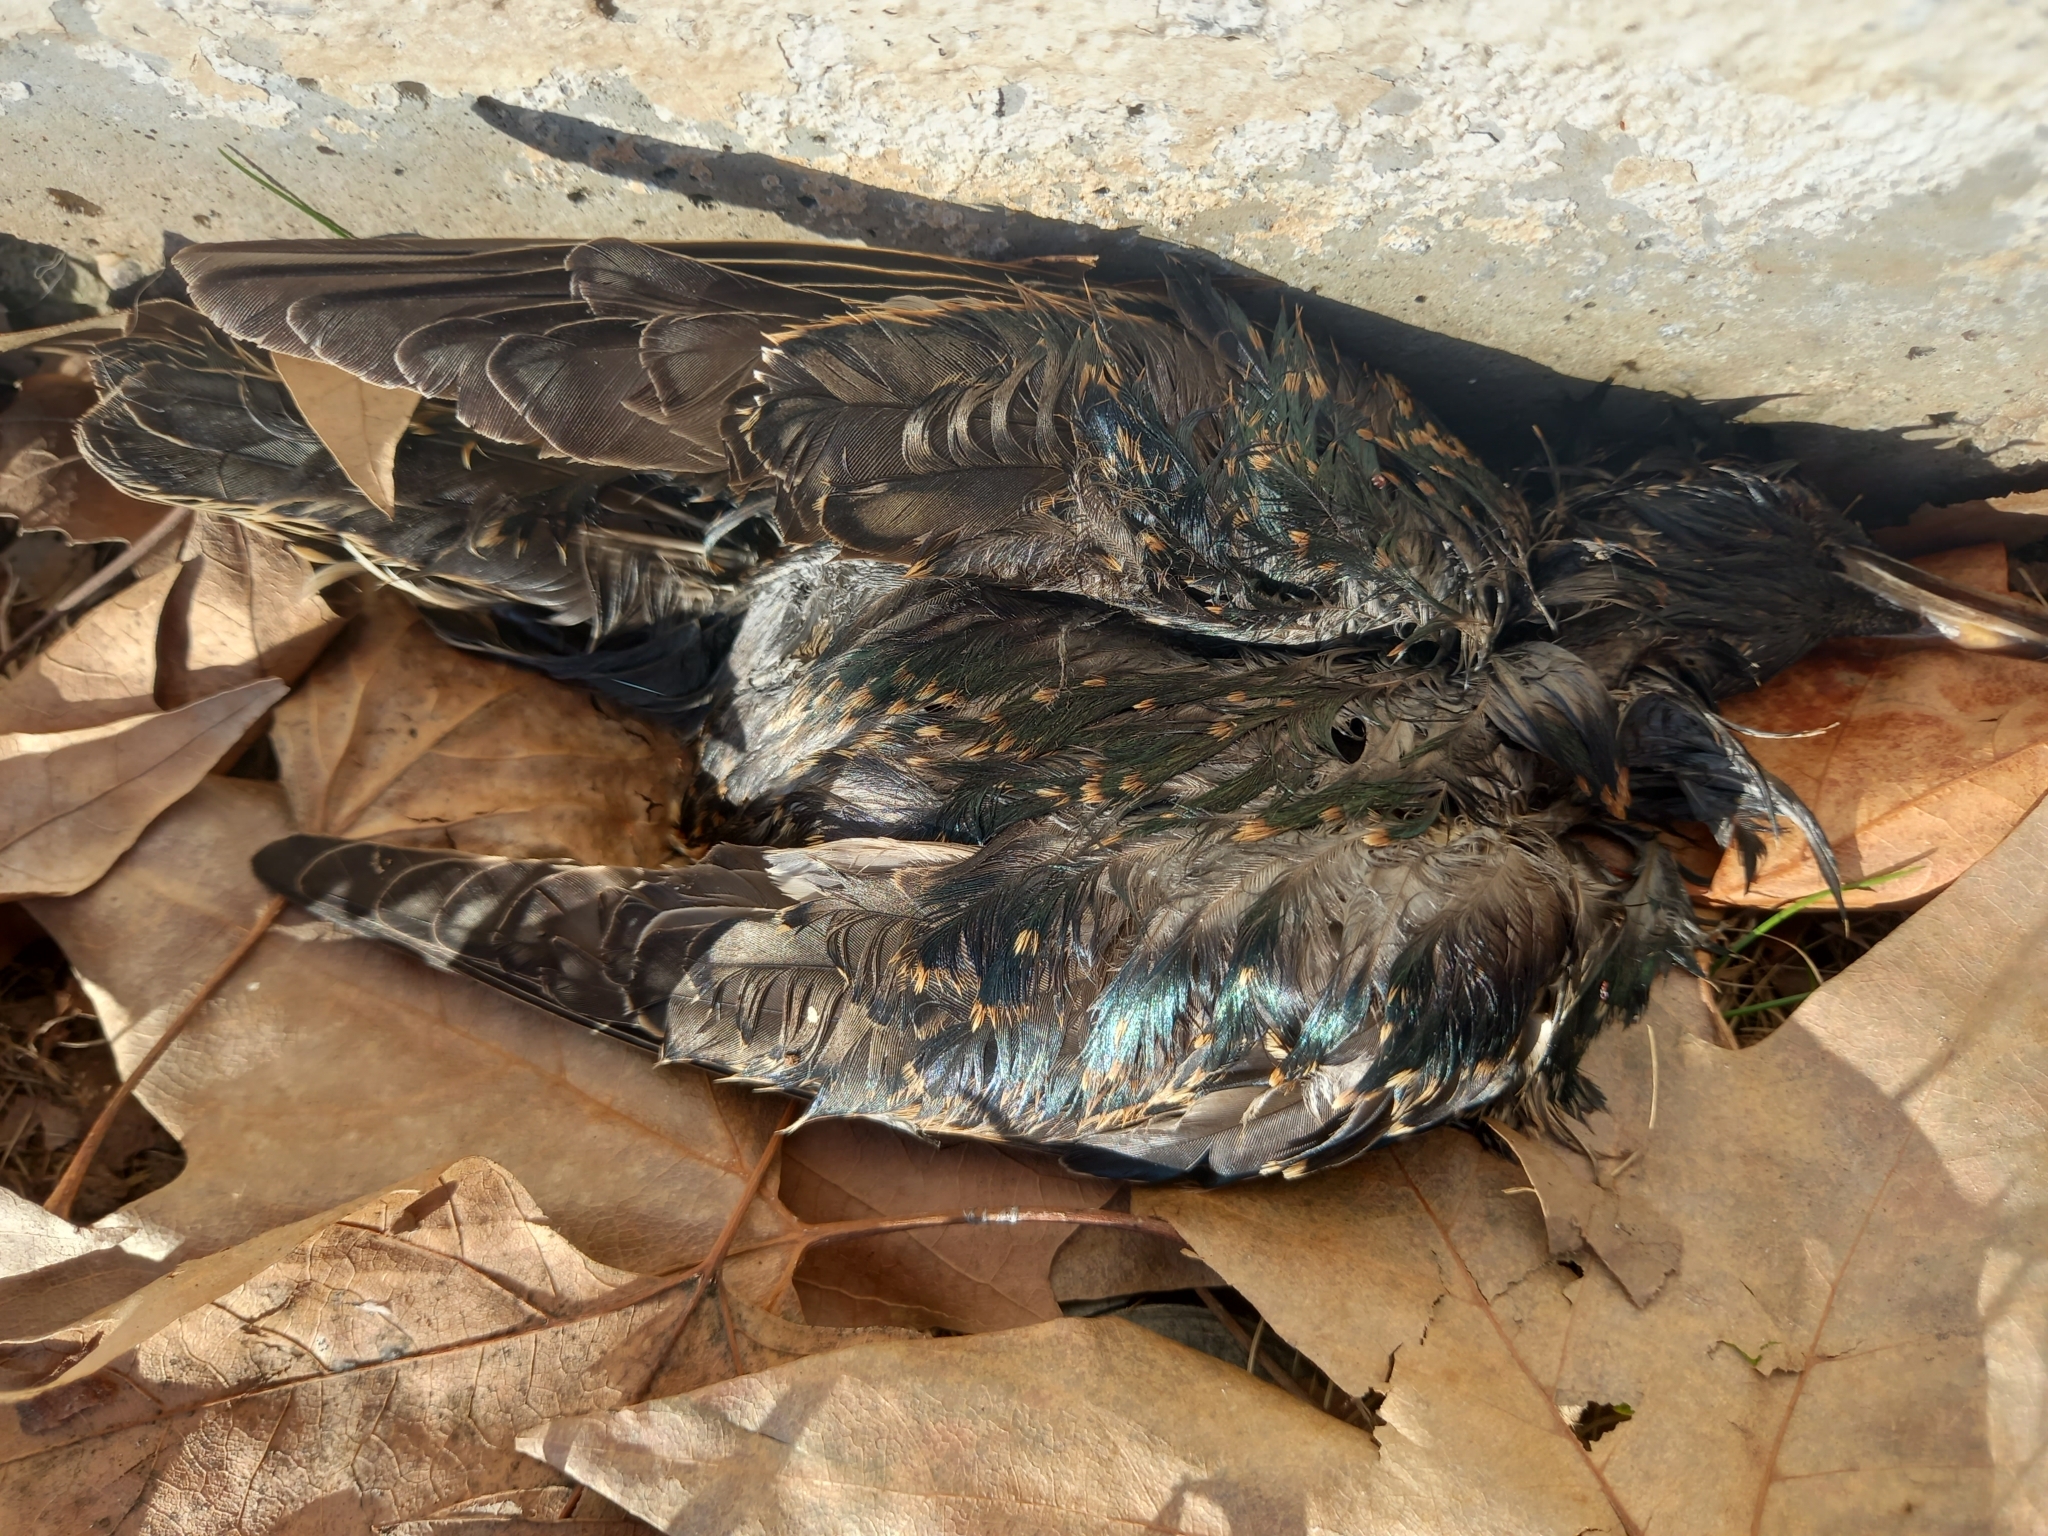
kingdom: Animalia
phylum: Chordata
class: Aves
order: Passeriformes
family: Sturnidae
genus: Sturnus
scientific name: Sturnus vulgaris
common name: Common starling
